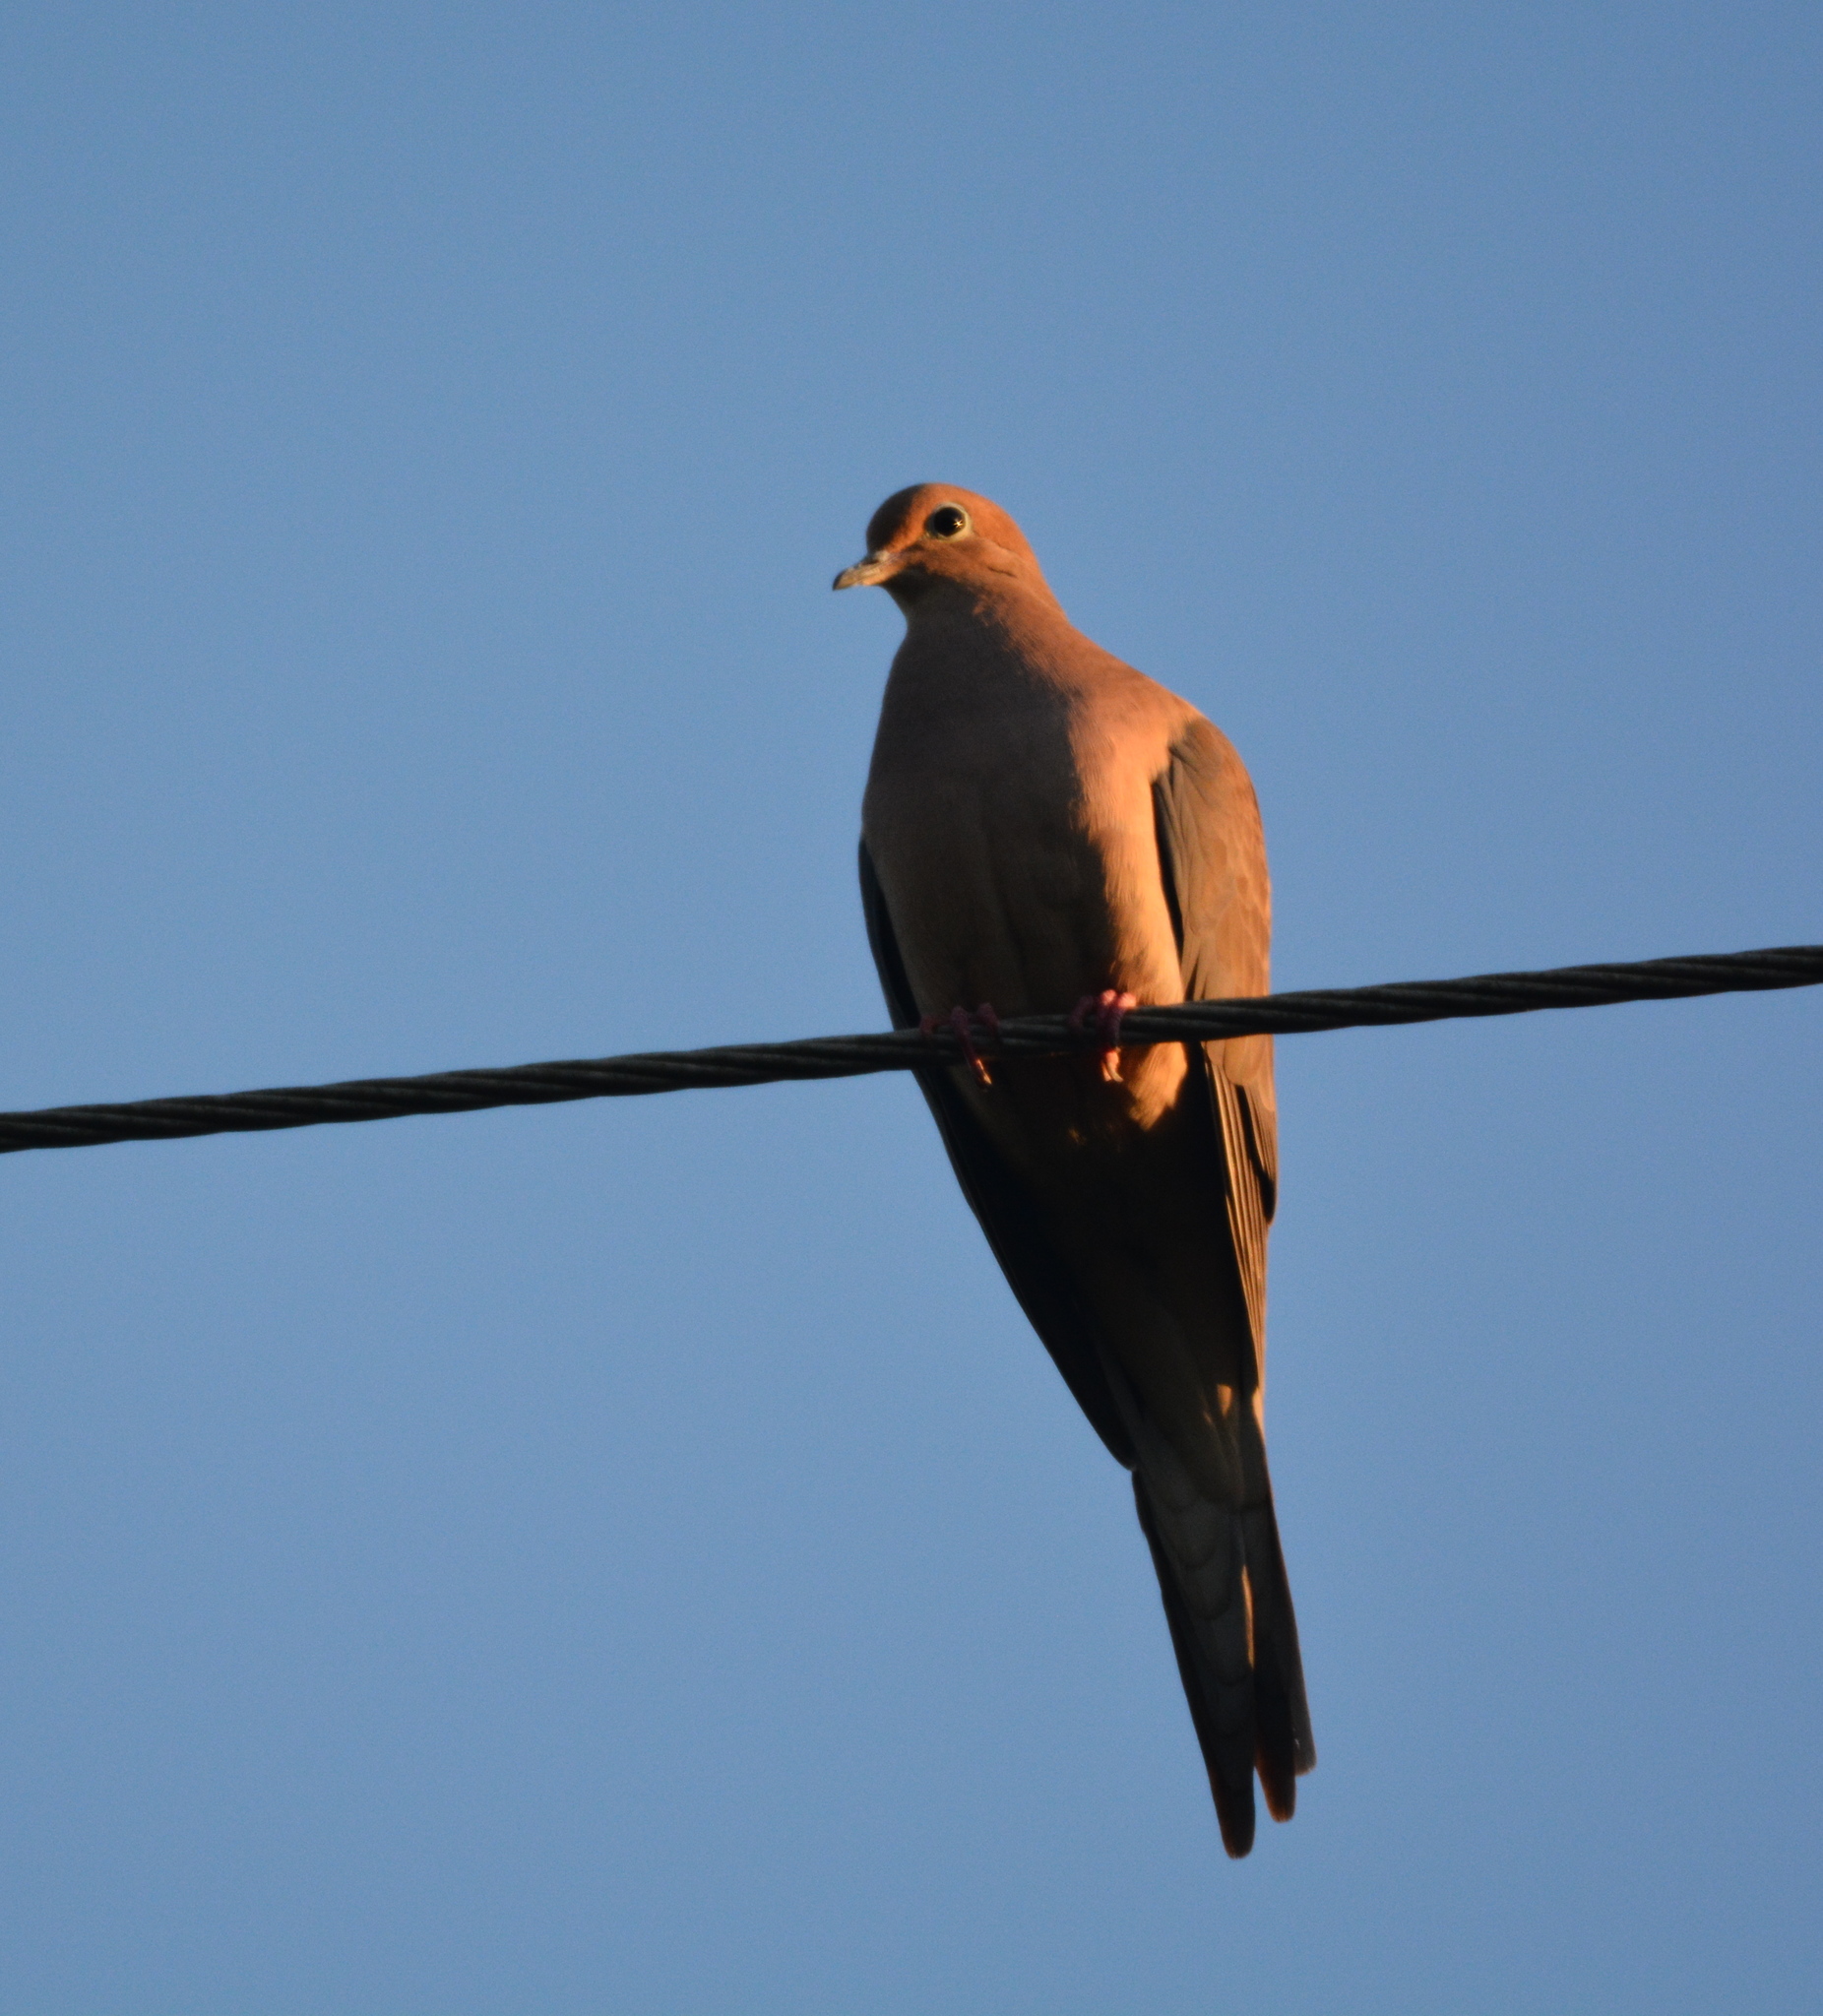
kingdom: Animalia
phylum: Chordata
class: Aves
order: Columbiformes
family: Columbidae
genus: Zenaida
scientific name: Zenaida macroura
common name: Mourning dove
